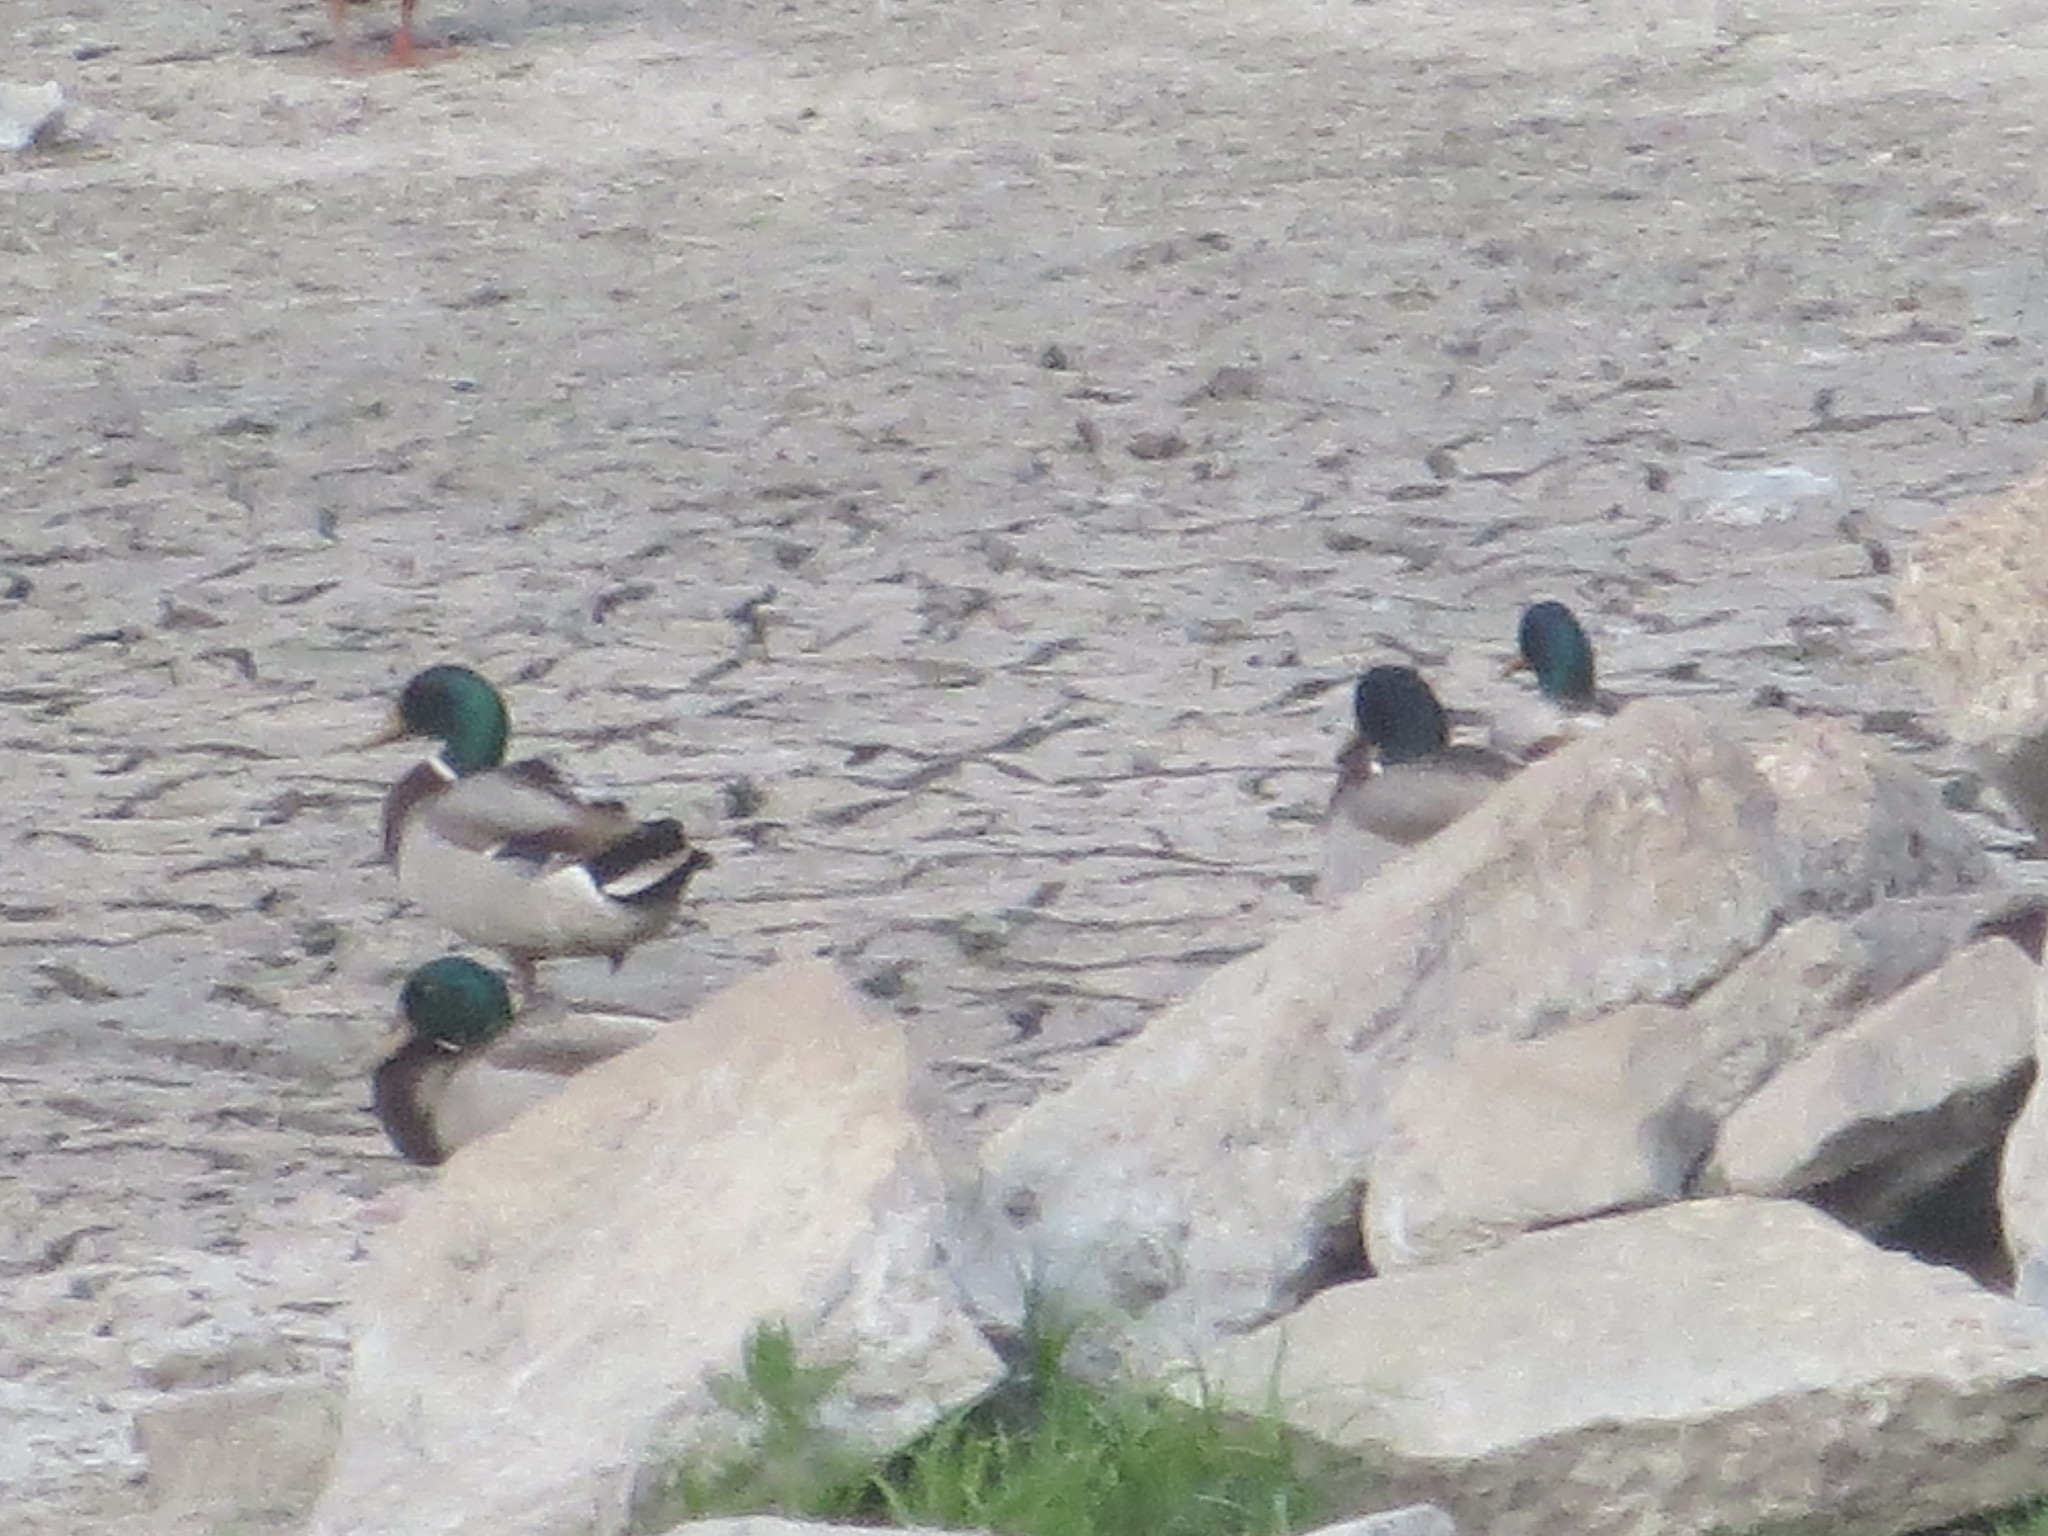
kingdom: Animalia
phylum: Chordata
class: Aves
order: Anseriformes
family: Anatidae
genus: Anas
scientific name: Anas platyrhynchos
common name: Mallard
